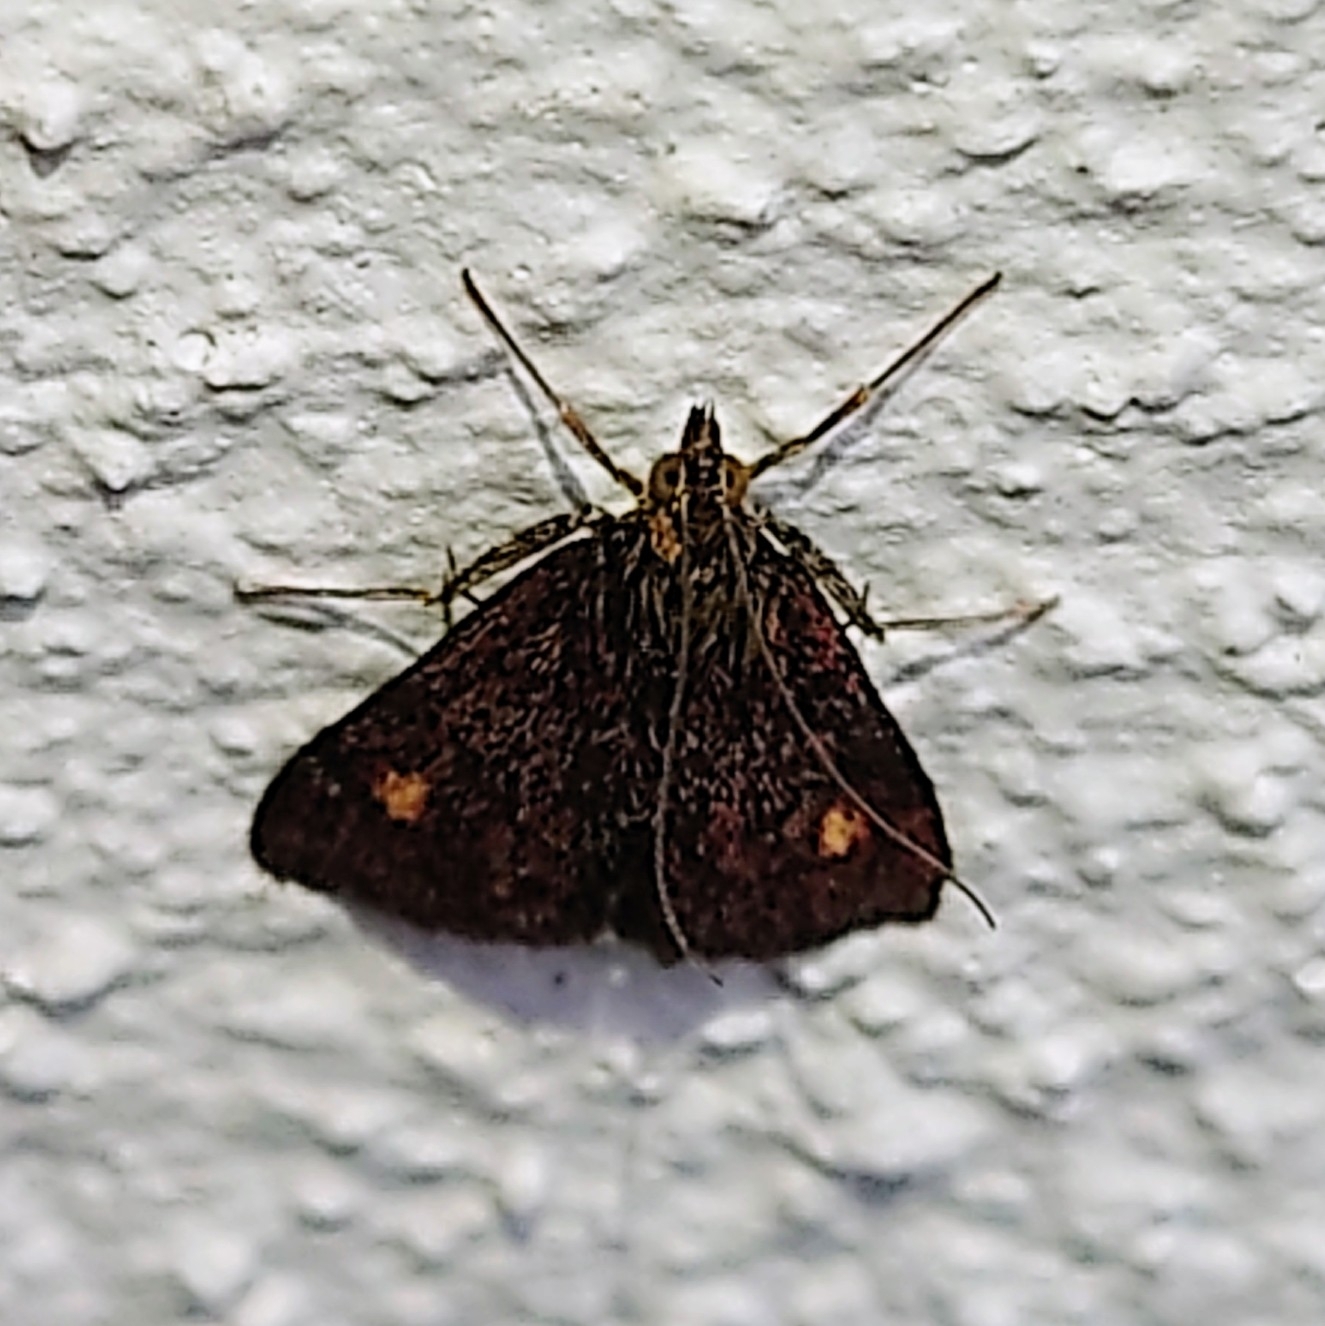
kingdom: Animalia
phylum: Arthropoda
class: Insecta
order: Lepidoptera
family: Crambidae
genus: Pyrausta
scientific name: Pyrausta aurata
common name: Small purple & gold
